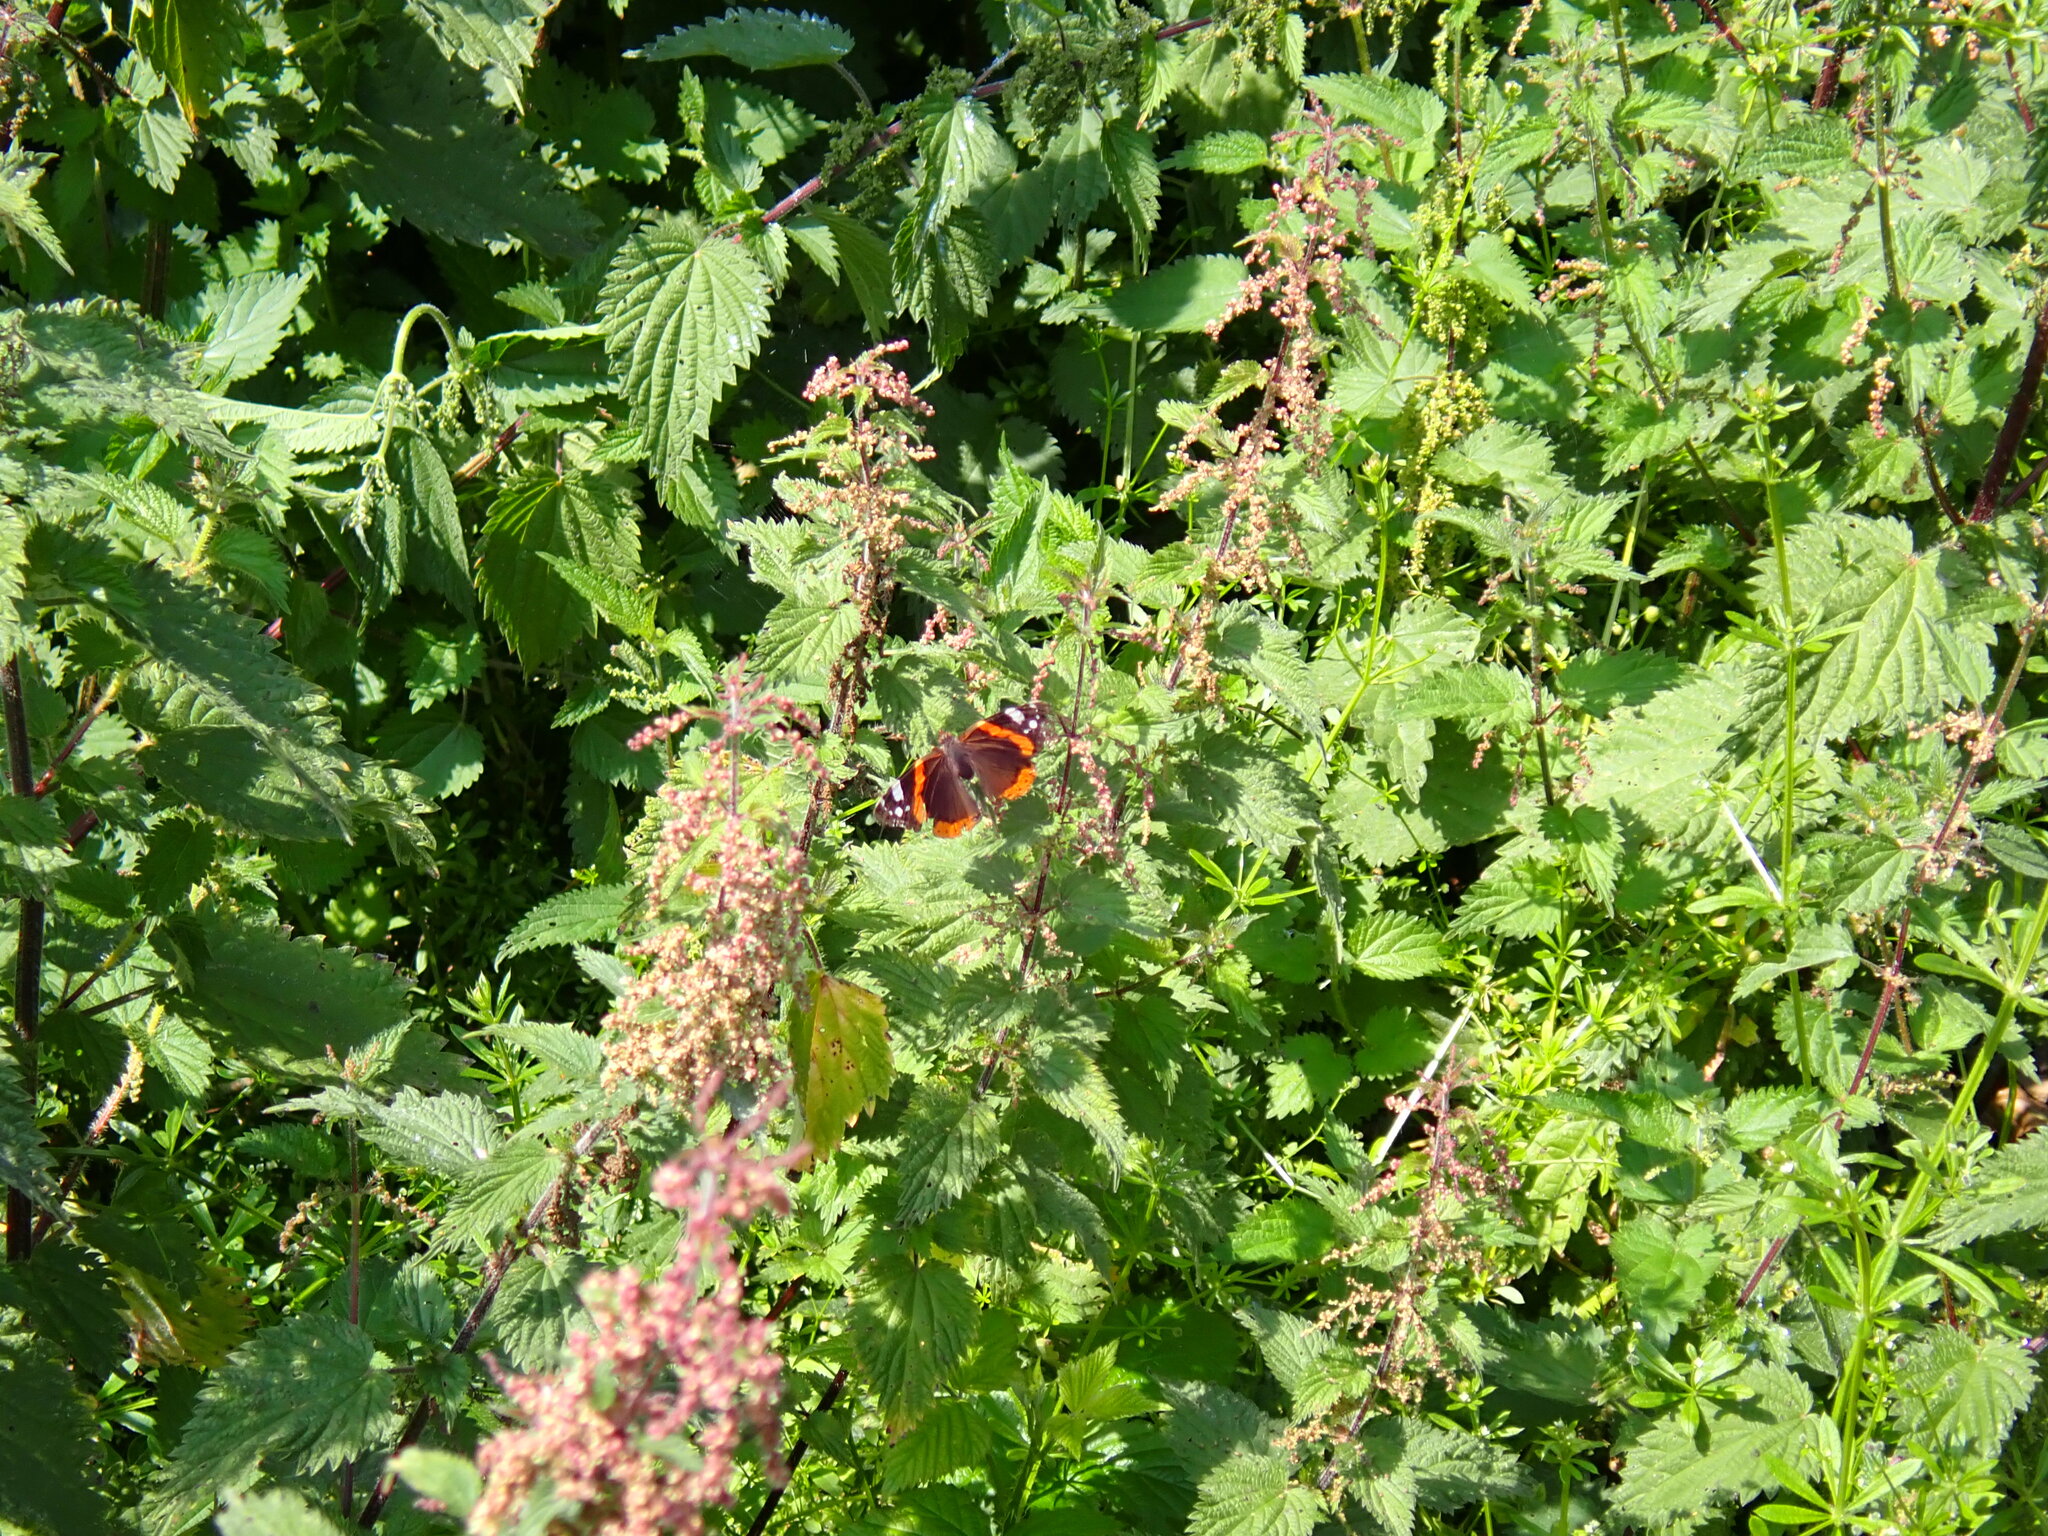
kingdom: Animalia
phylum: Arthropoda
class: Insecta
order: Lepidoptera
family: Nymphalidae
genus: Vanessa
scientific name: Vanessa atalanta
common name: Red admiral
